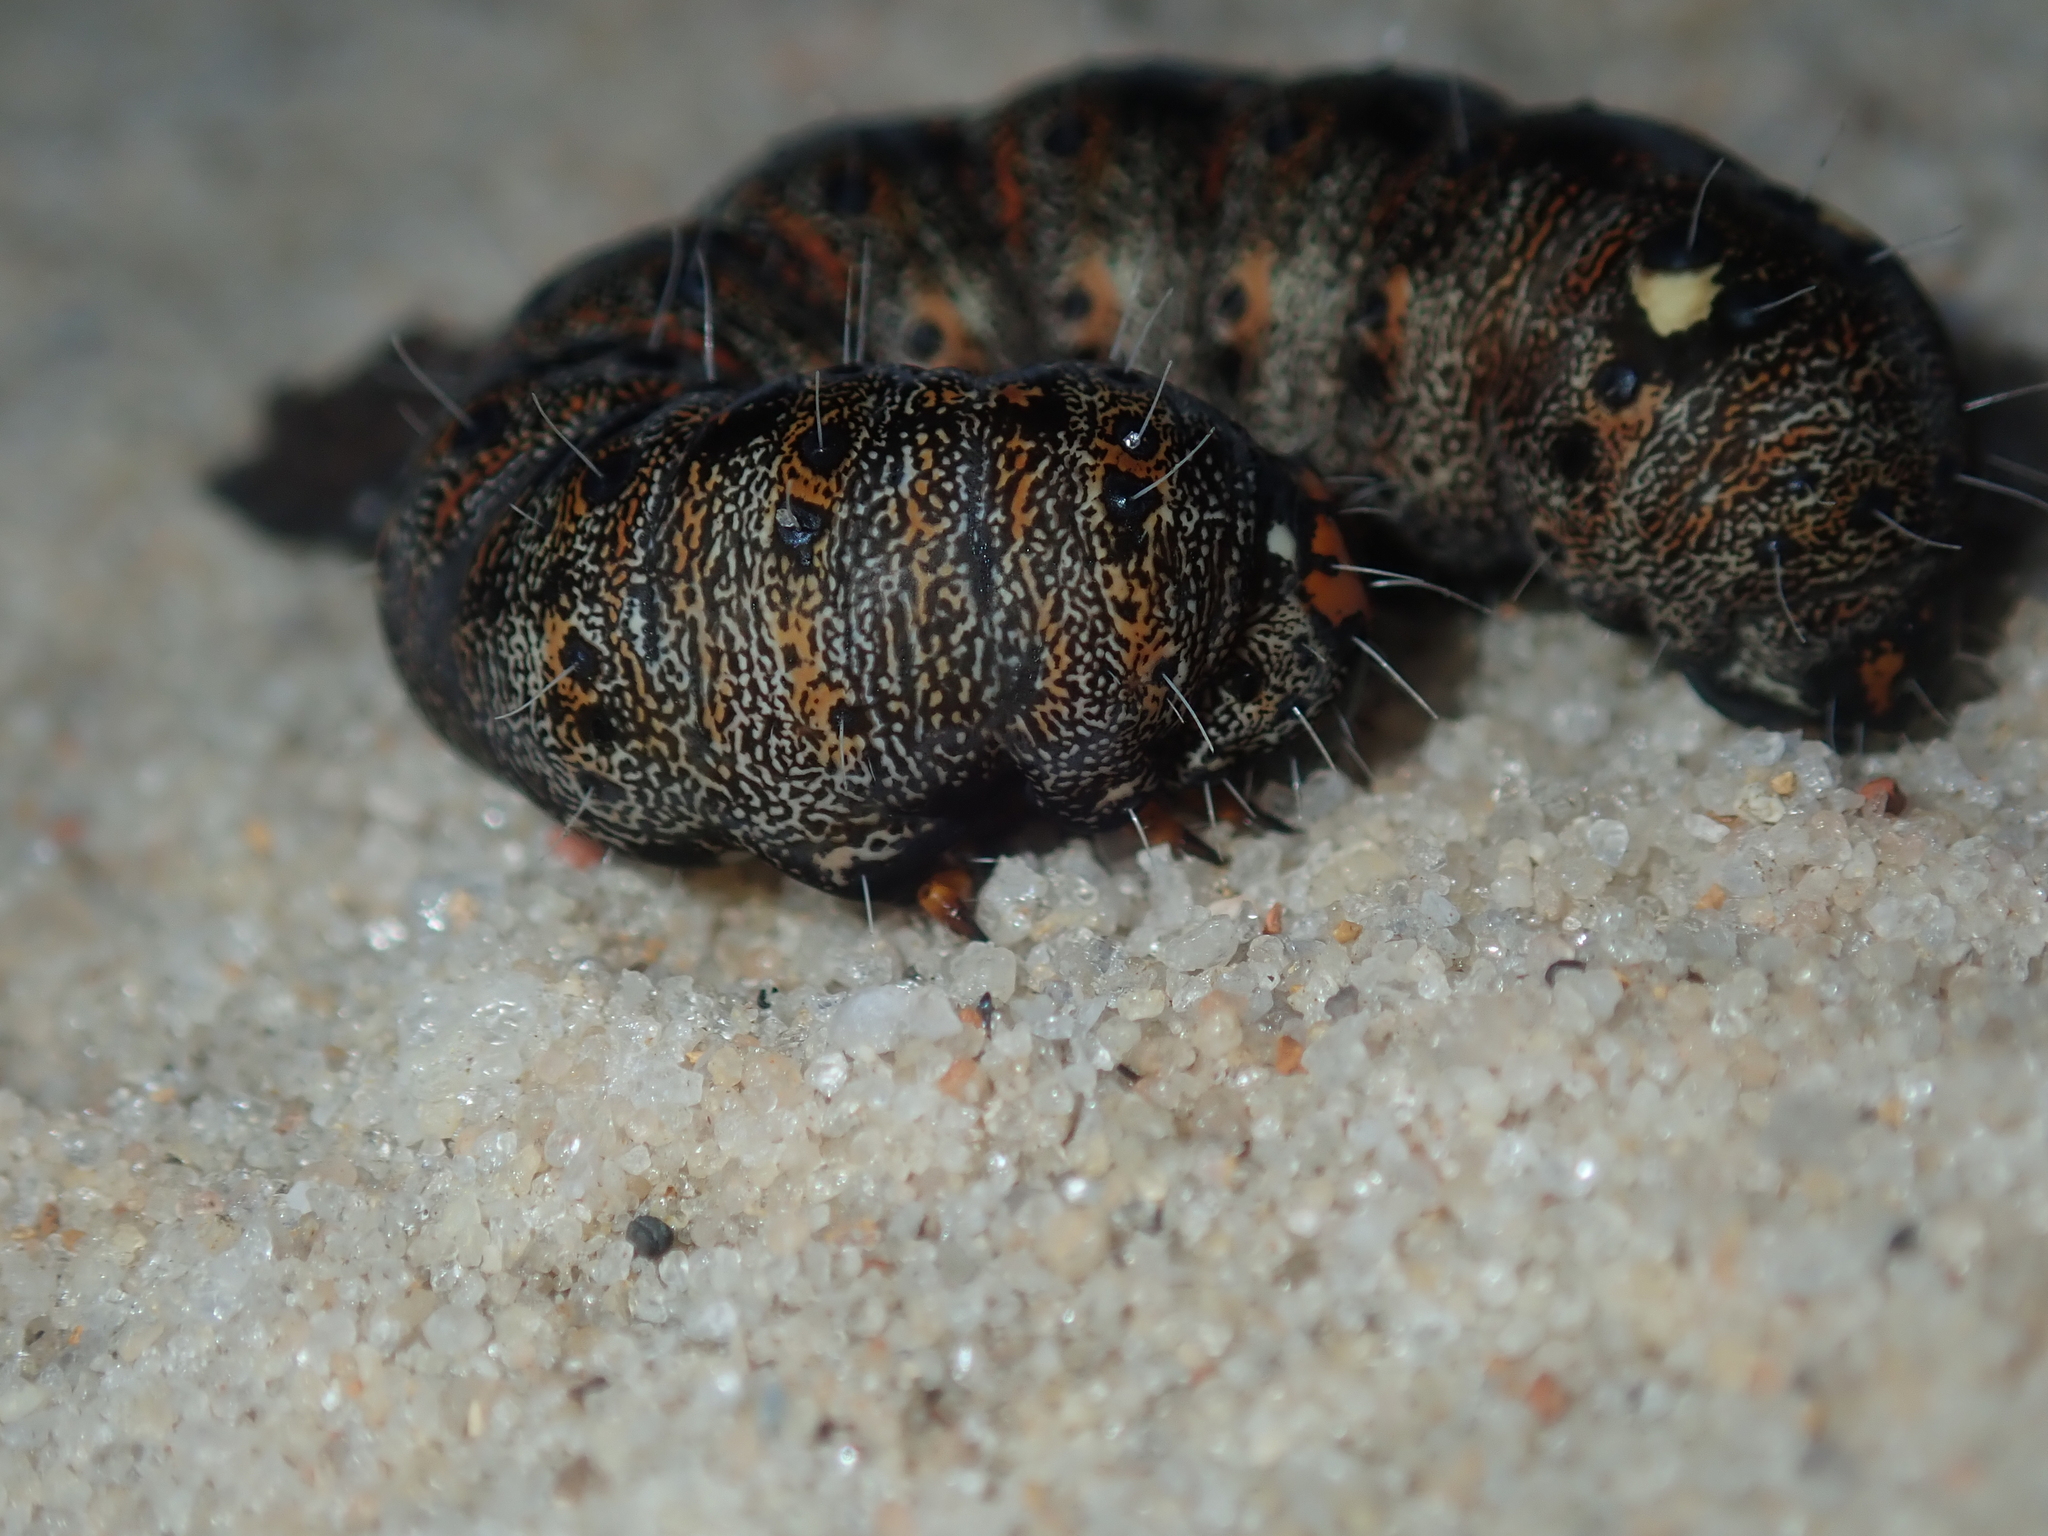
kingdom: Animalia
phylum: Arthropoda
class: Insecta
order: Lepidoptera
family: Noctuidae
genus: Apina
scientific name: Apina callisto
